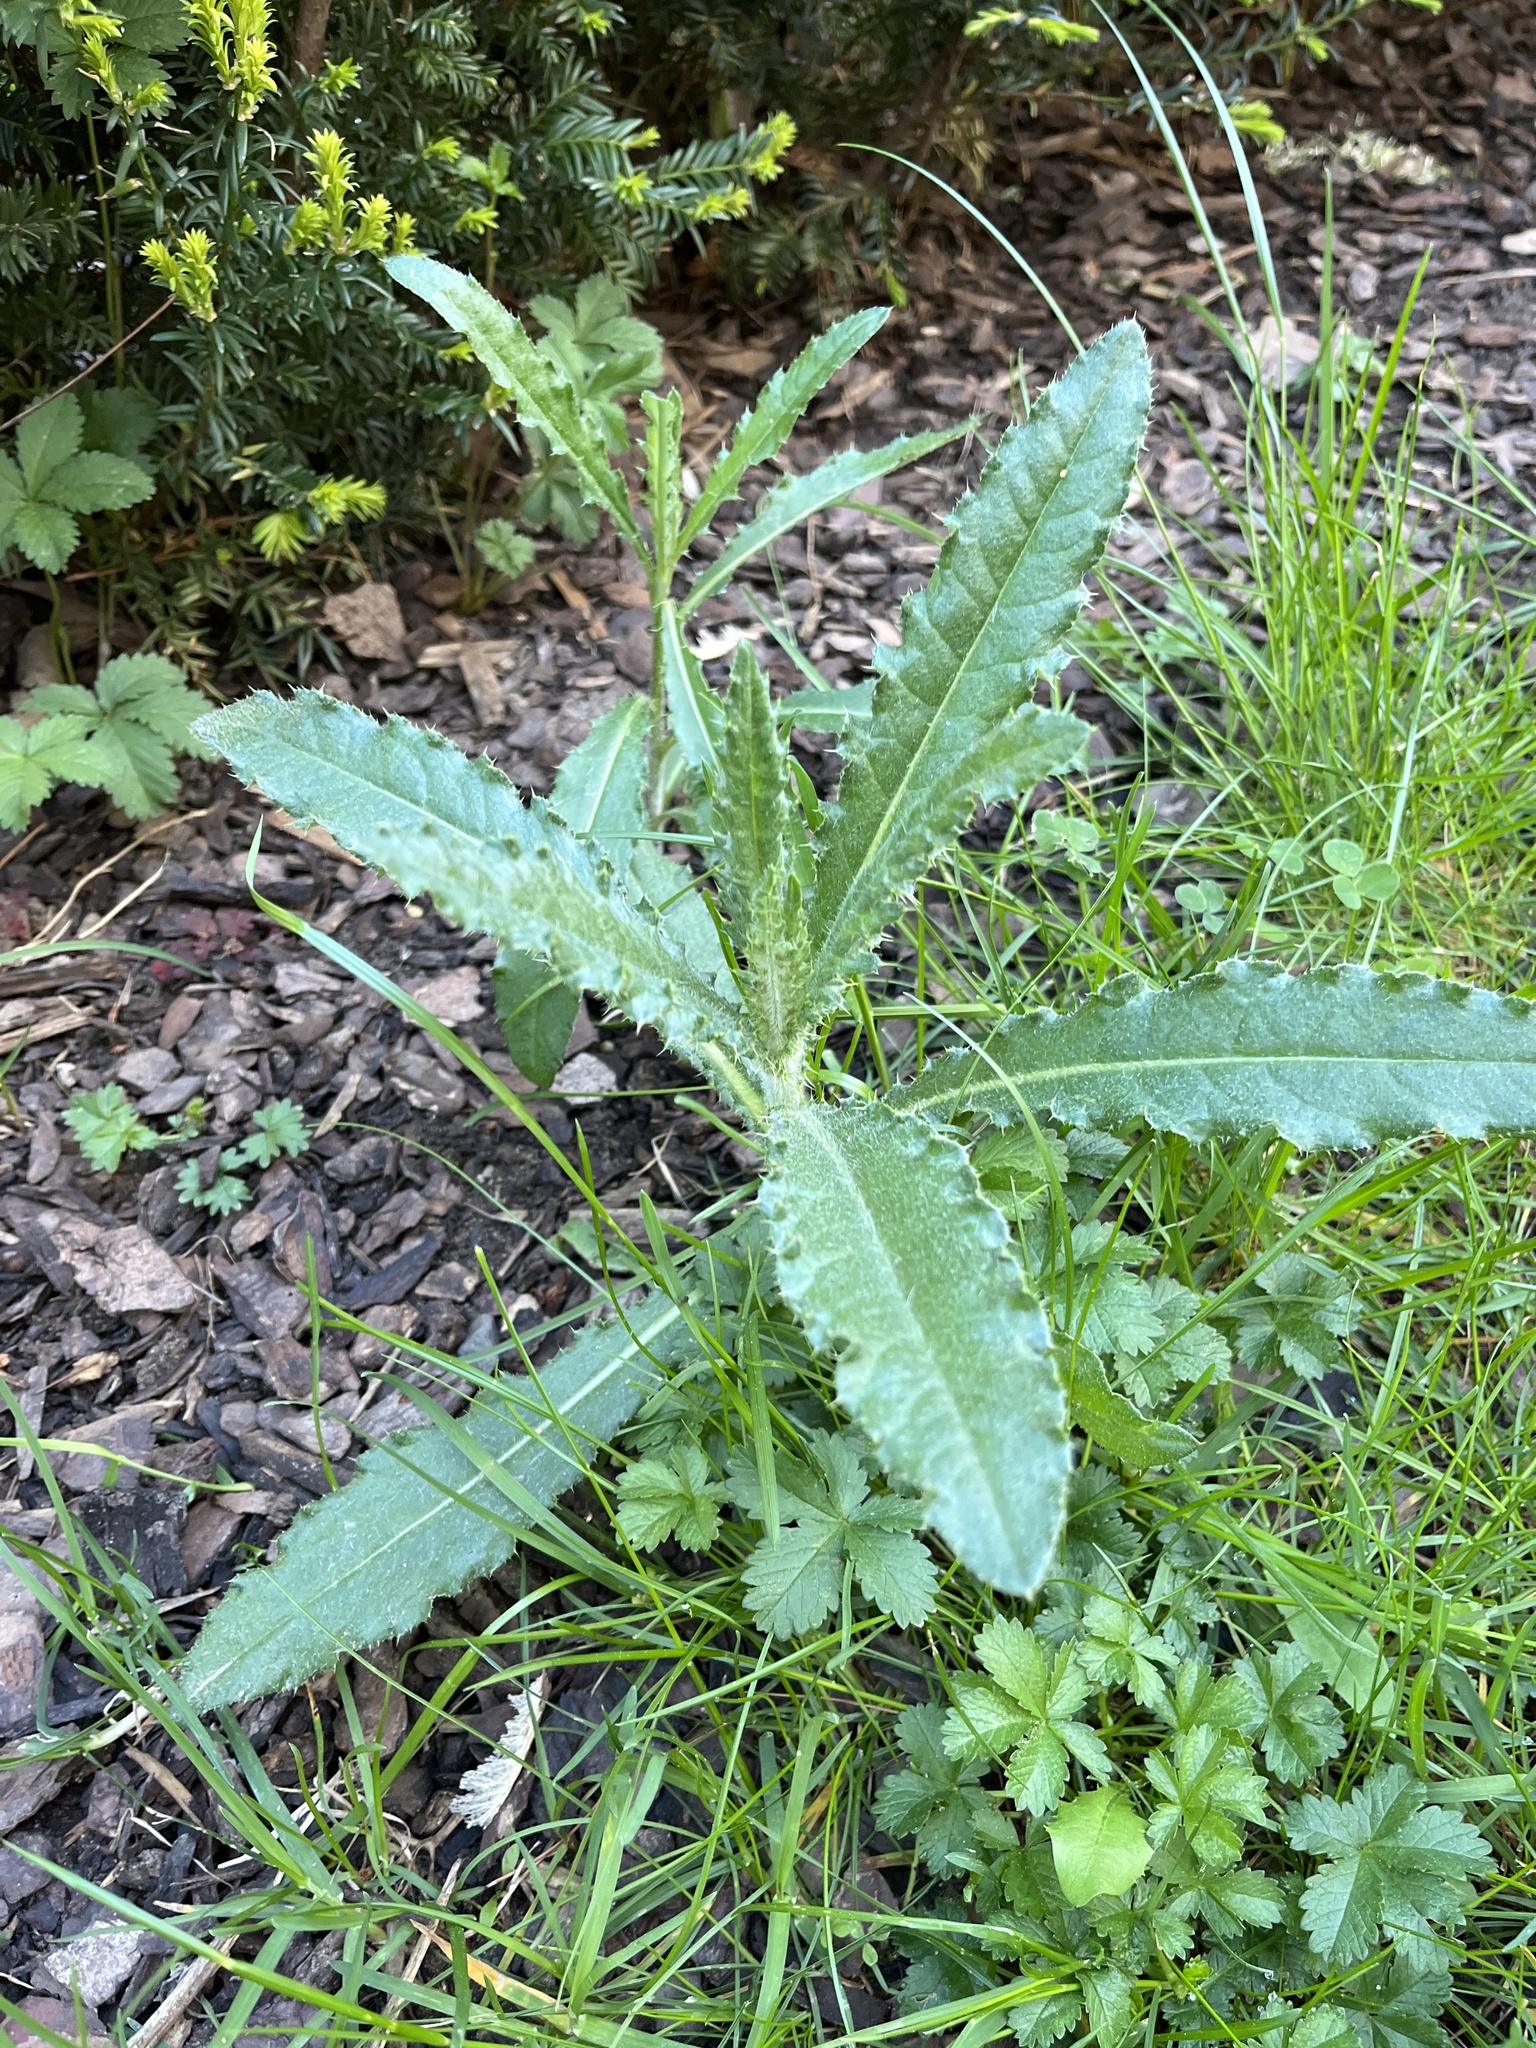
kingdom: Plantae
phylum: Tracheophyta
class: Magnoliopsida
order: Asterales
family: Asteraceae
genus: Cirsium
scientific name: Cirsium arvense
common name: Creeping thistle
